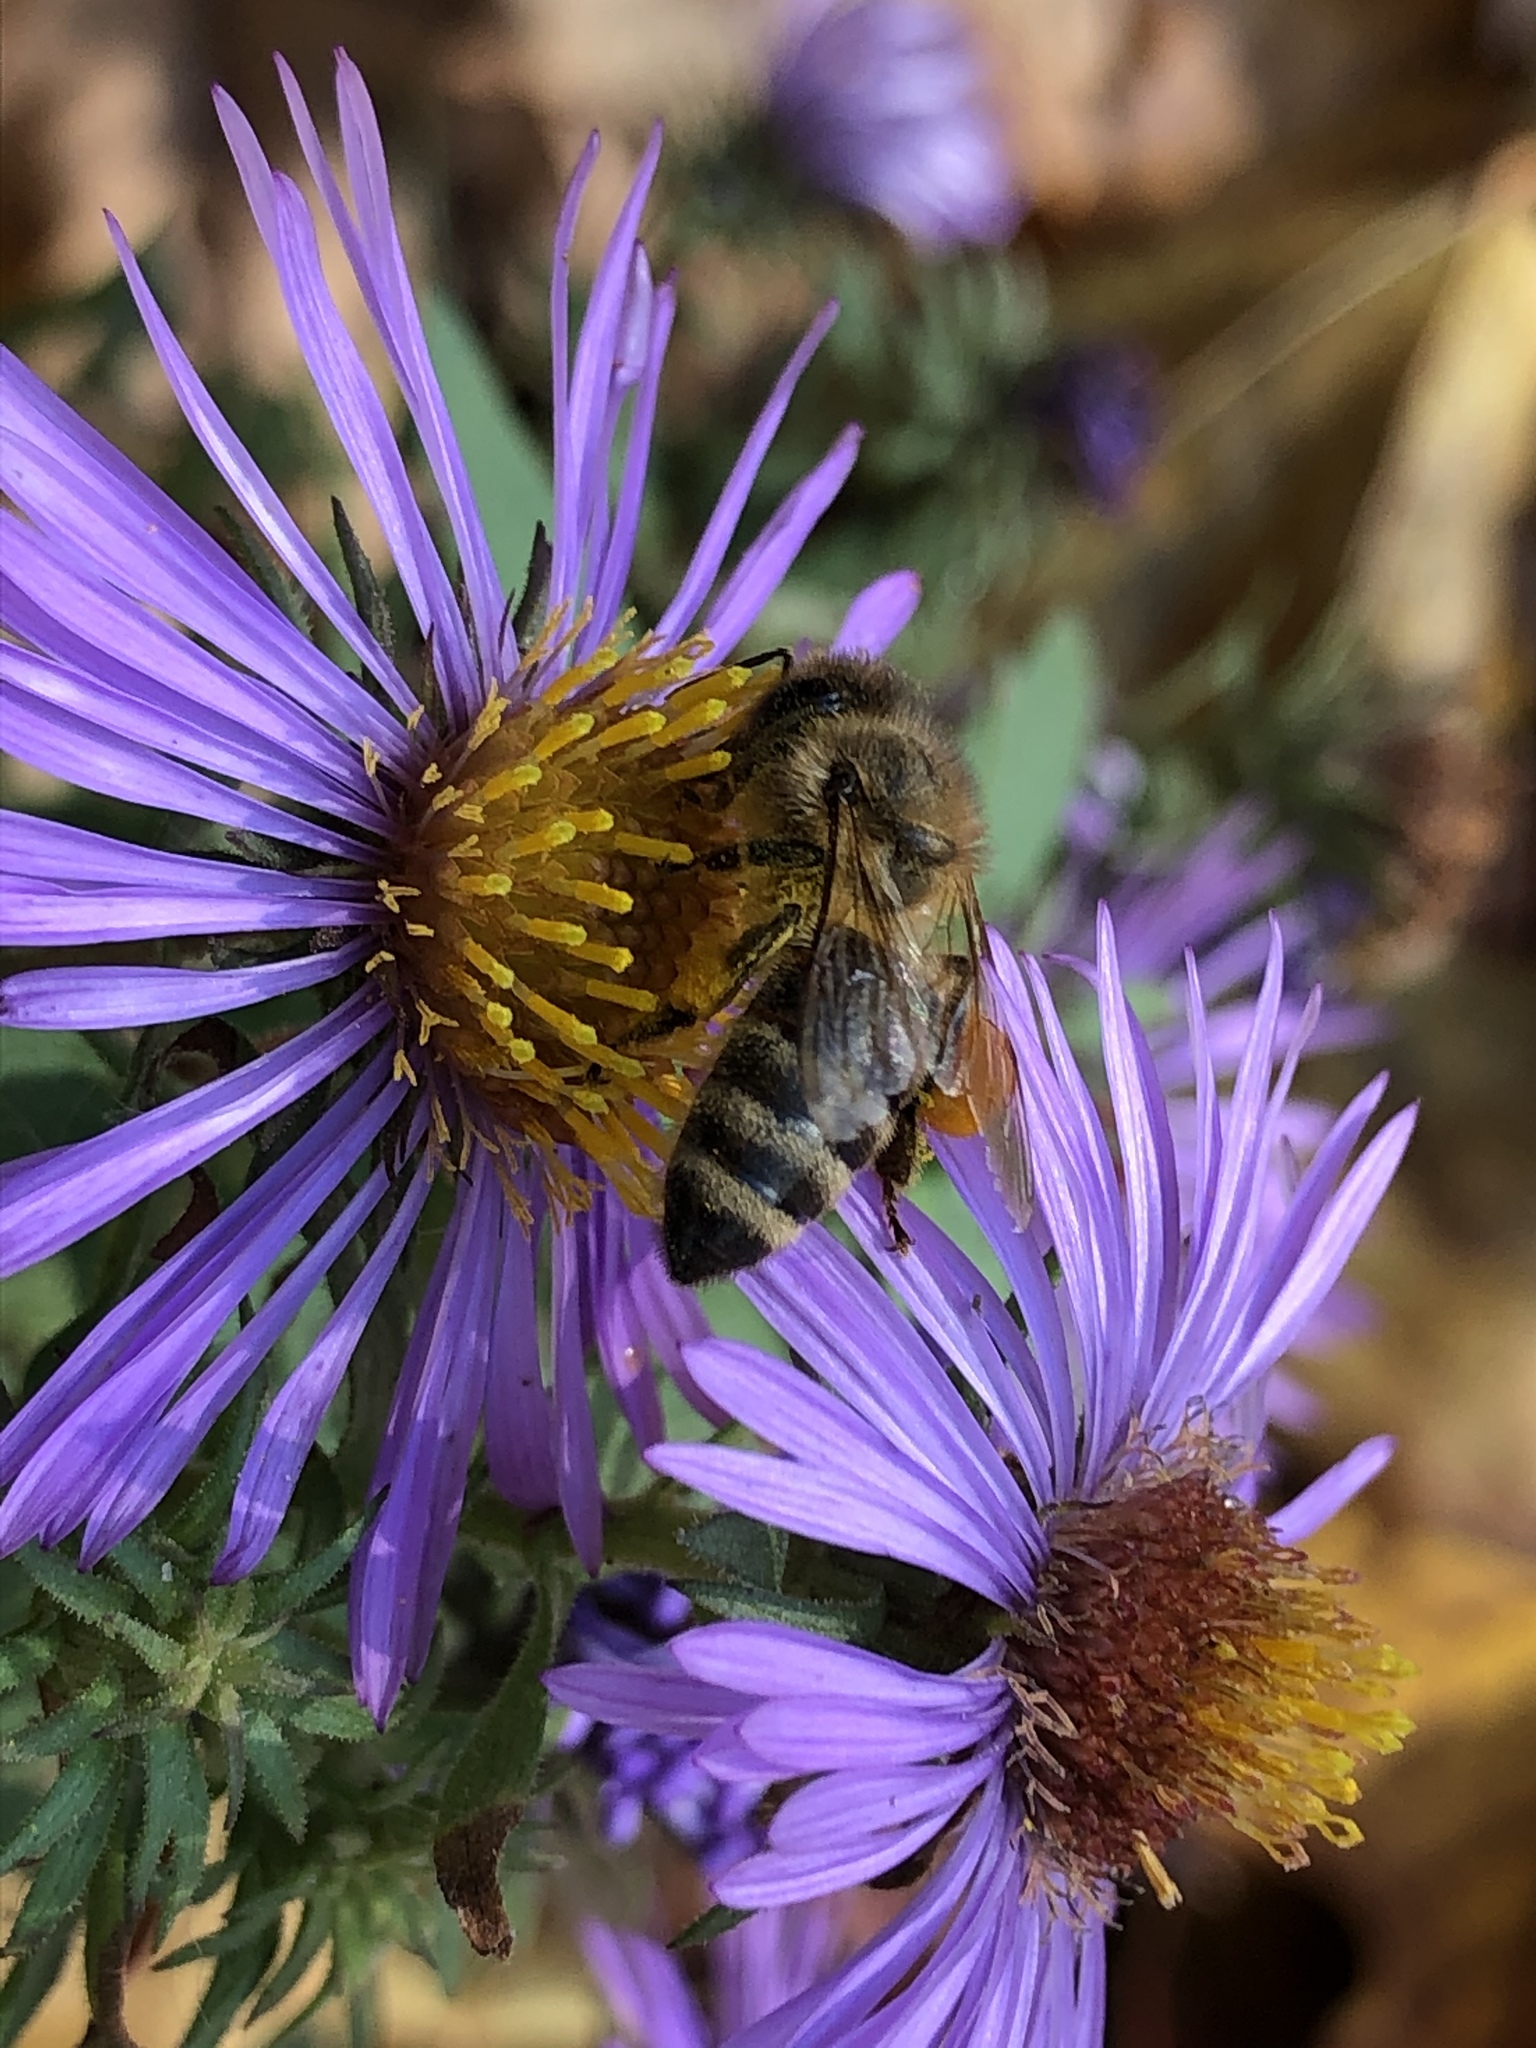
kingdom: Plantae
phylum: Tracheophyta
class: Magnoliopsida
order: Asterales
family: Asteraceae
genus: Symphyotrichum
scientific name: Symphyotrichum novae-angliae
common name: Michaelmas daisy
